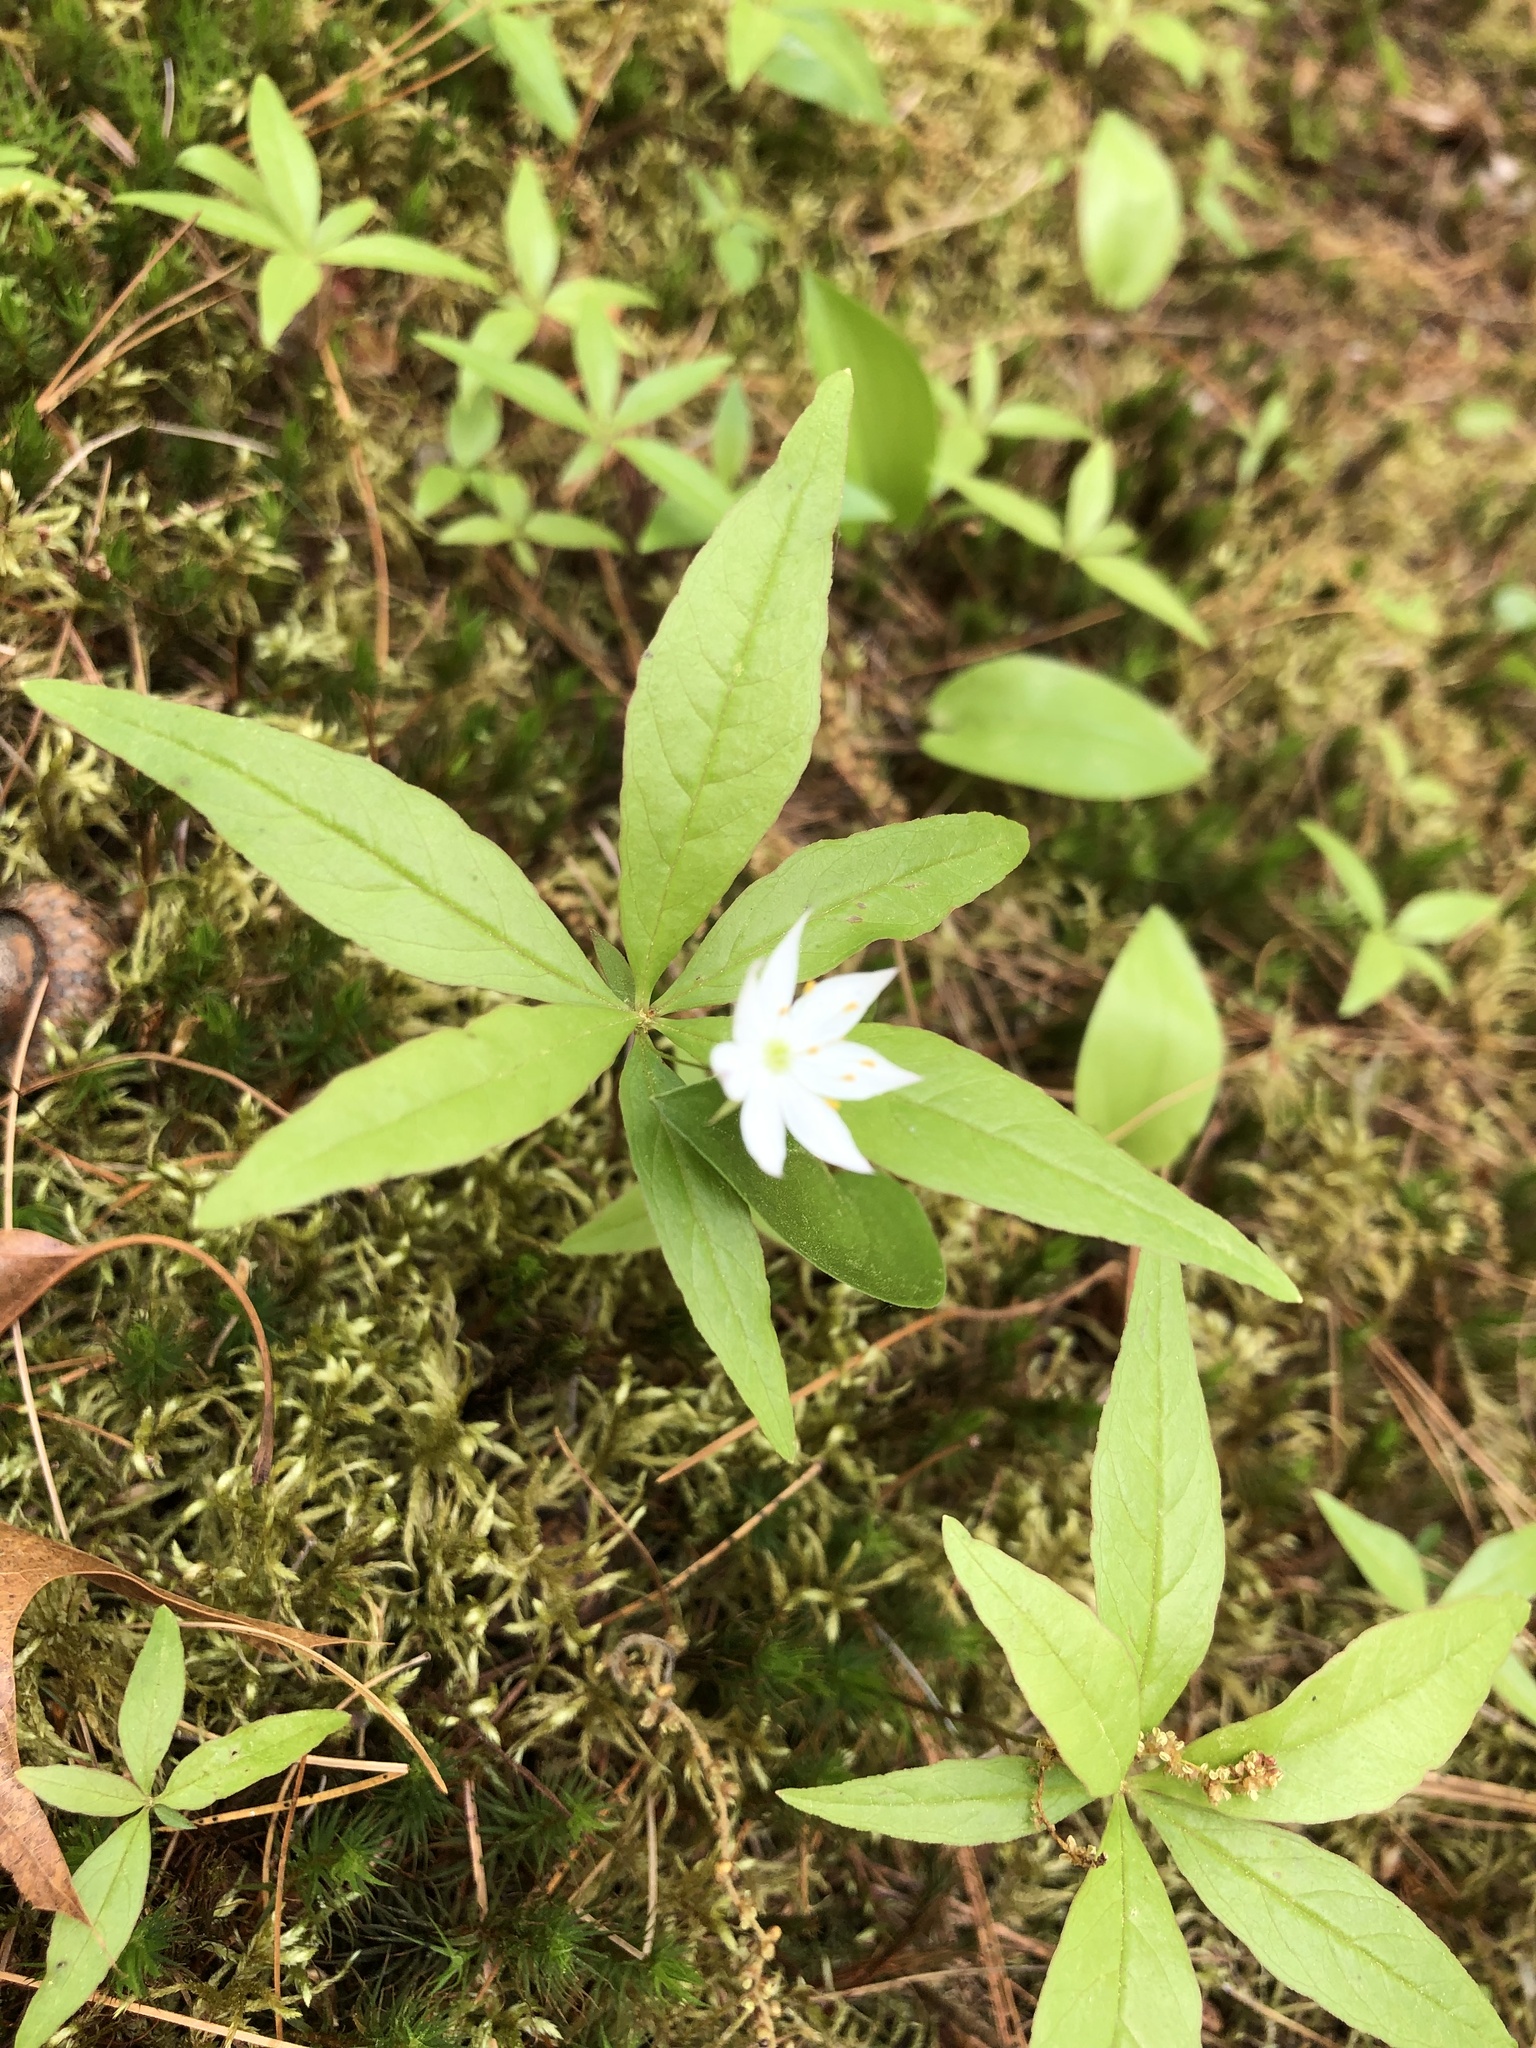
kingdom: Plantae
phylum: Tracheophyta
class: Magnoliopsida
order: Ericales
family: Primulaceae
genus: Lysimachia
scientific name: Lysimachia borealis
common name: American starflower
